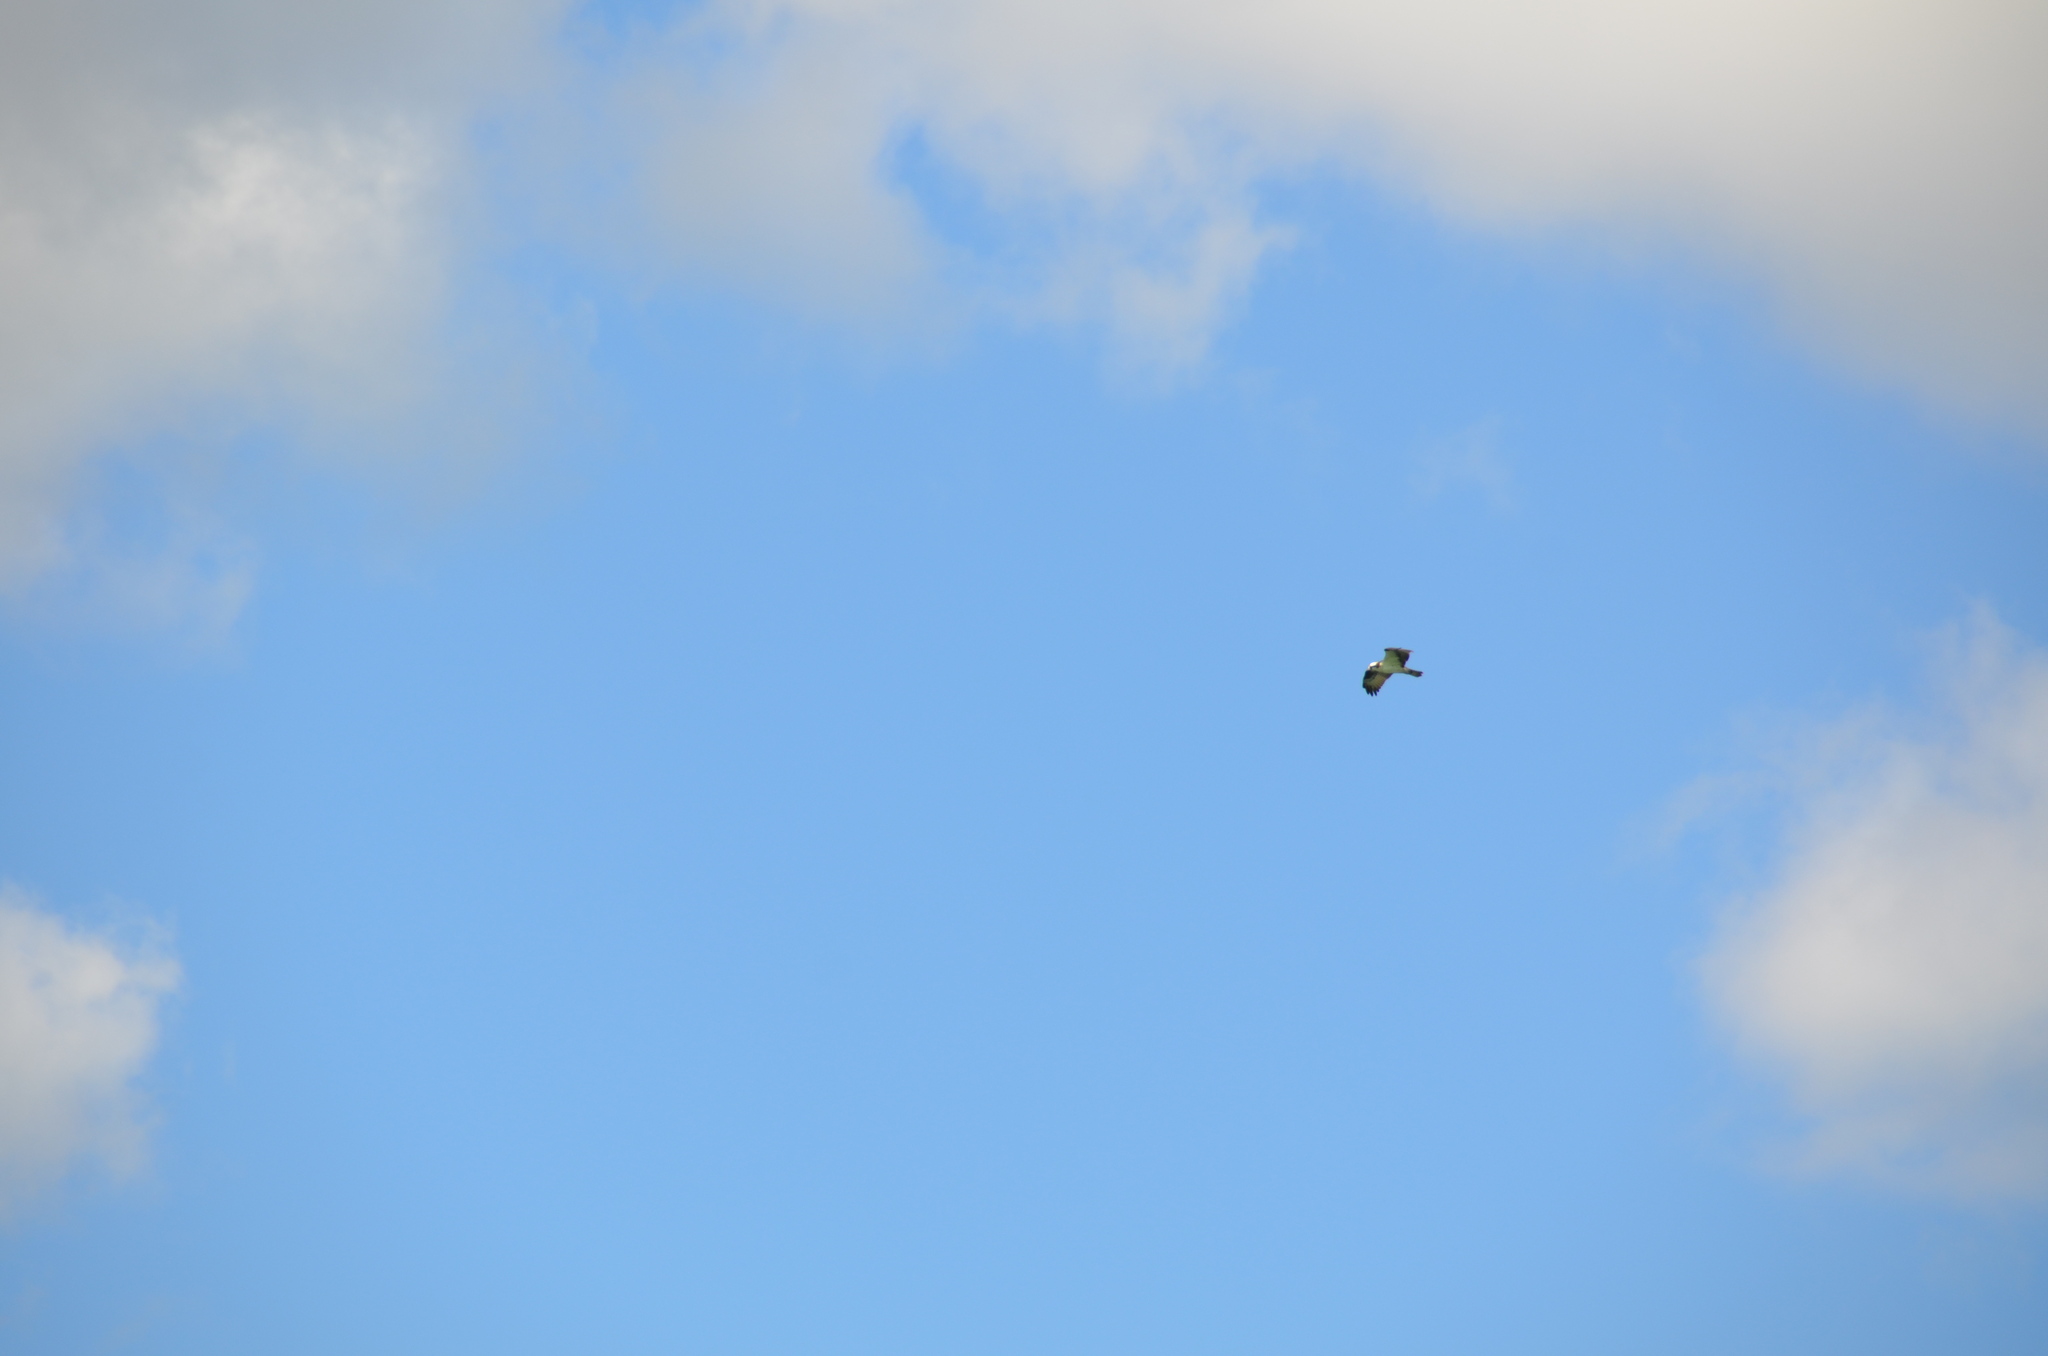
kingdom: Animalia
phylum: Chordata
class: Aves
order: Accipitriformes
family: Pandionidae
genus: Pandion
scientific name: Pandion haliaetus
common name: Osprey
